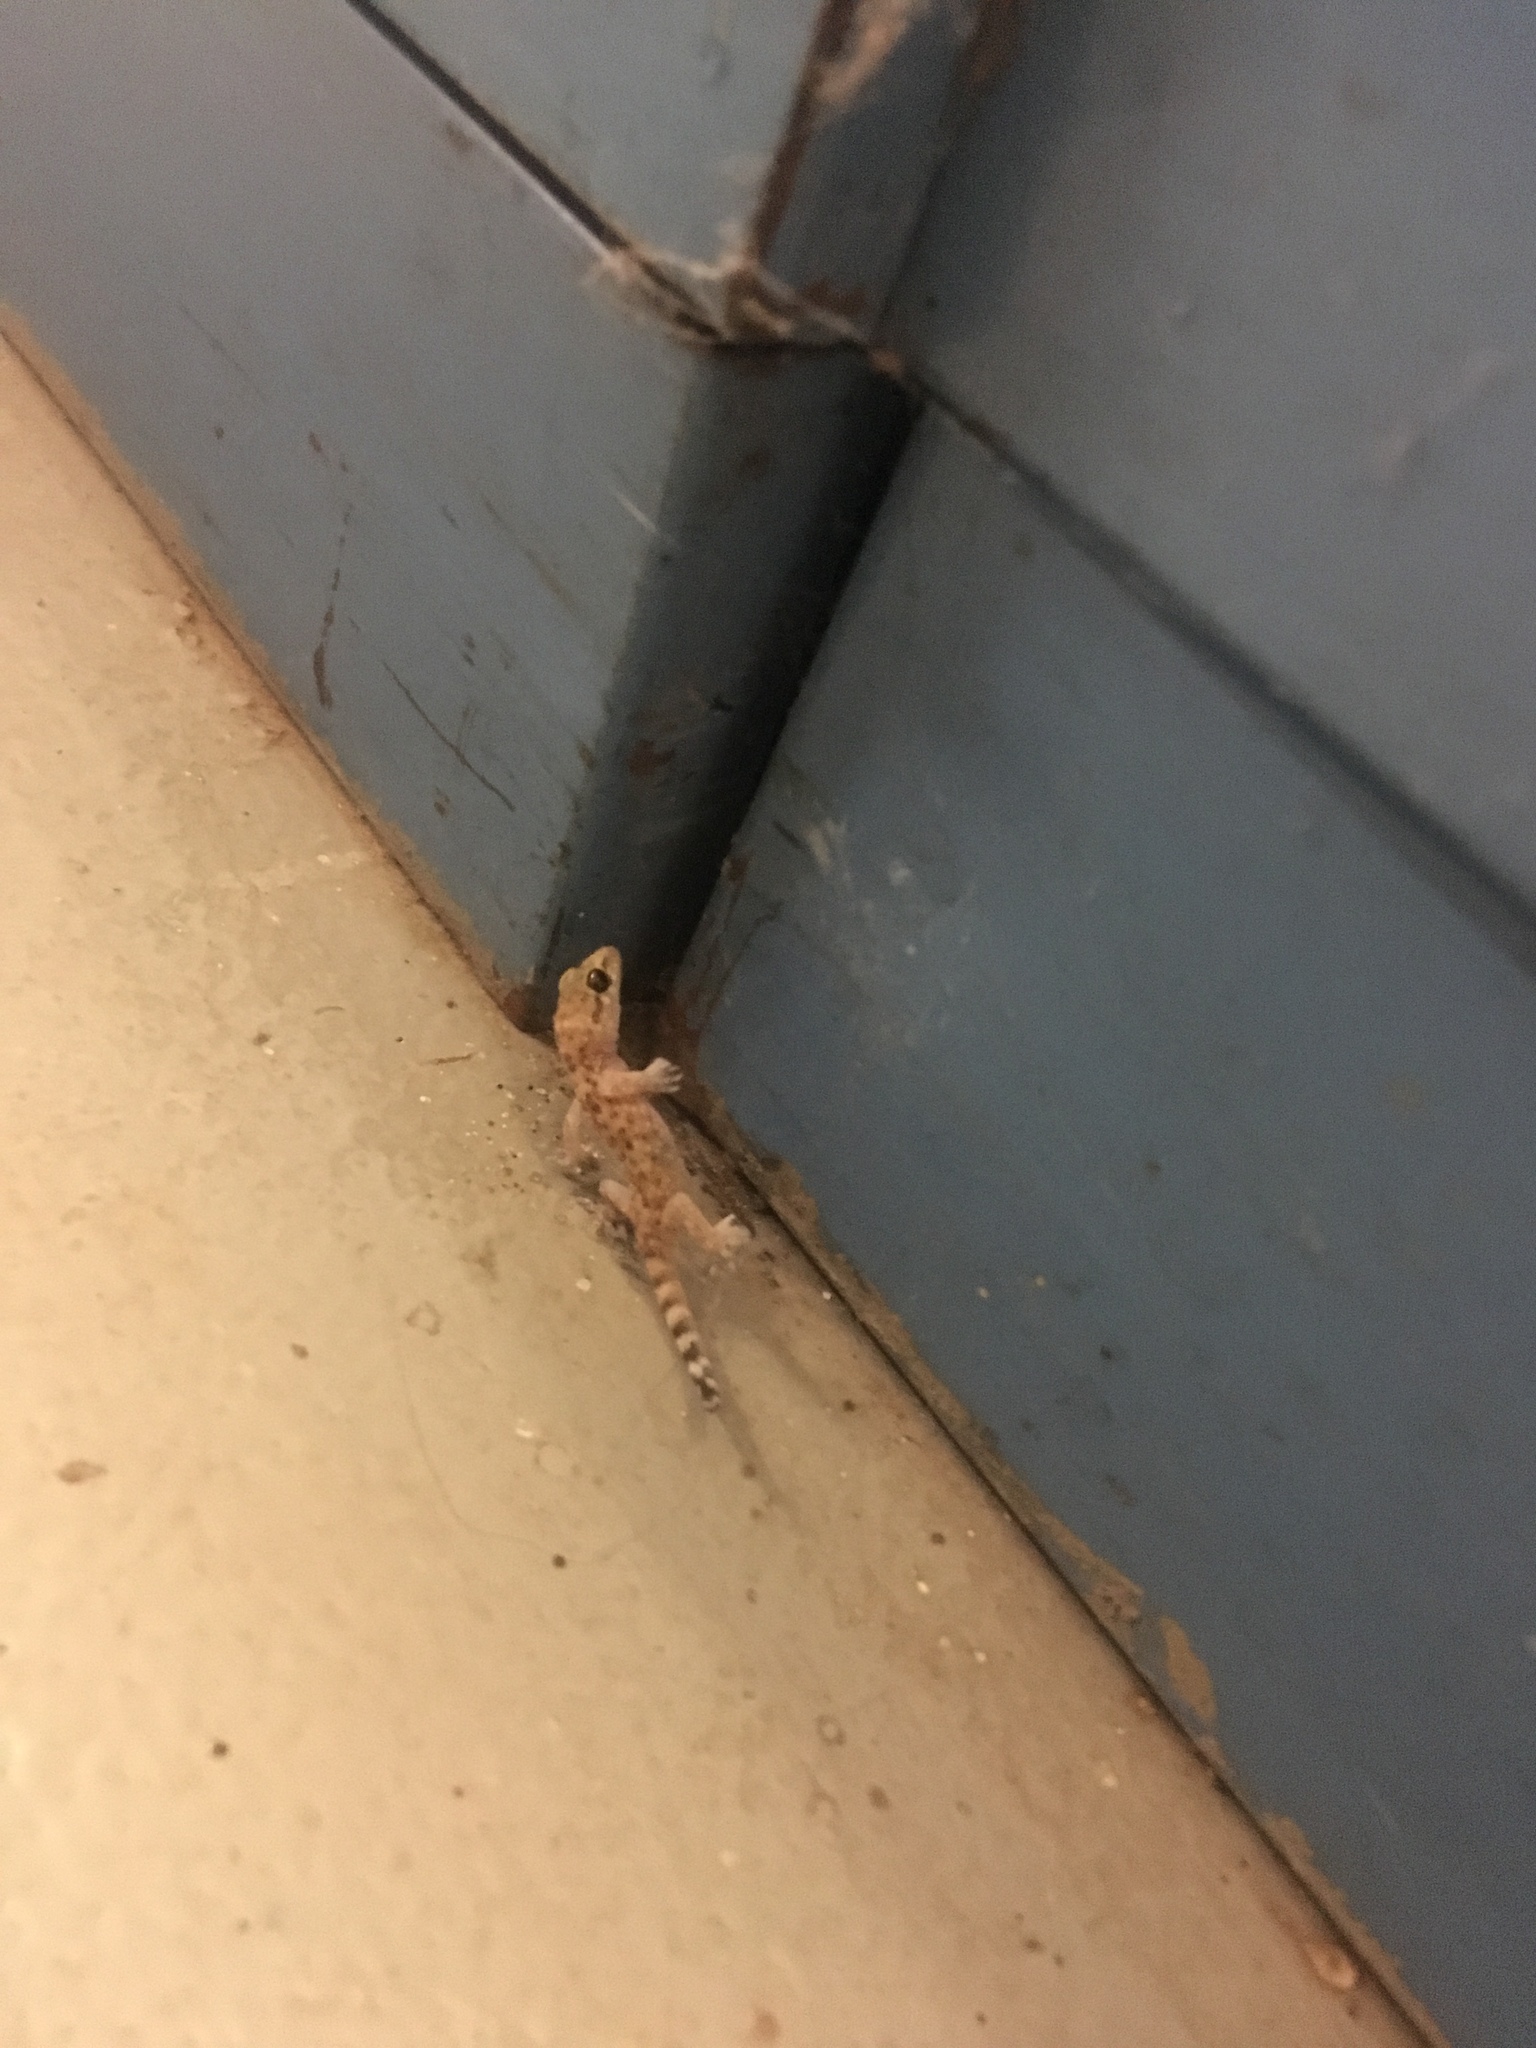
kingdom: Animalia
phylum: Chordata
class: Squamata
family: Gekkonidae
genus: Hemidactylus
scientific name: Hemidactylus turcicus
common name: Turkish gecko
